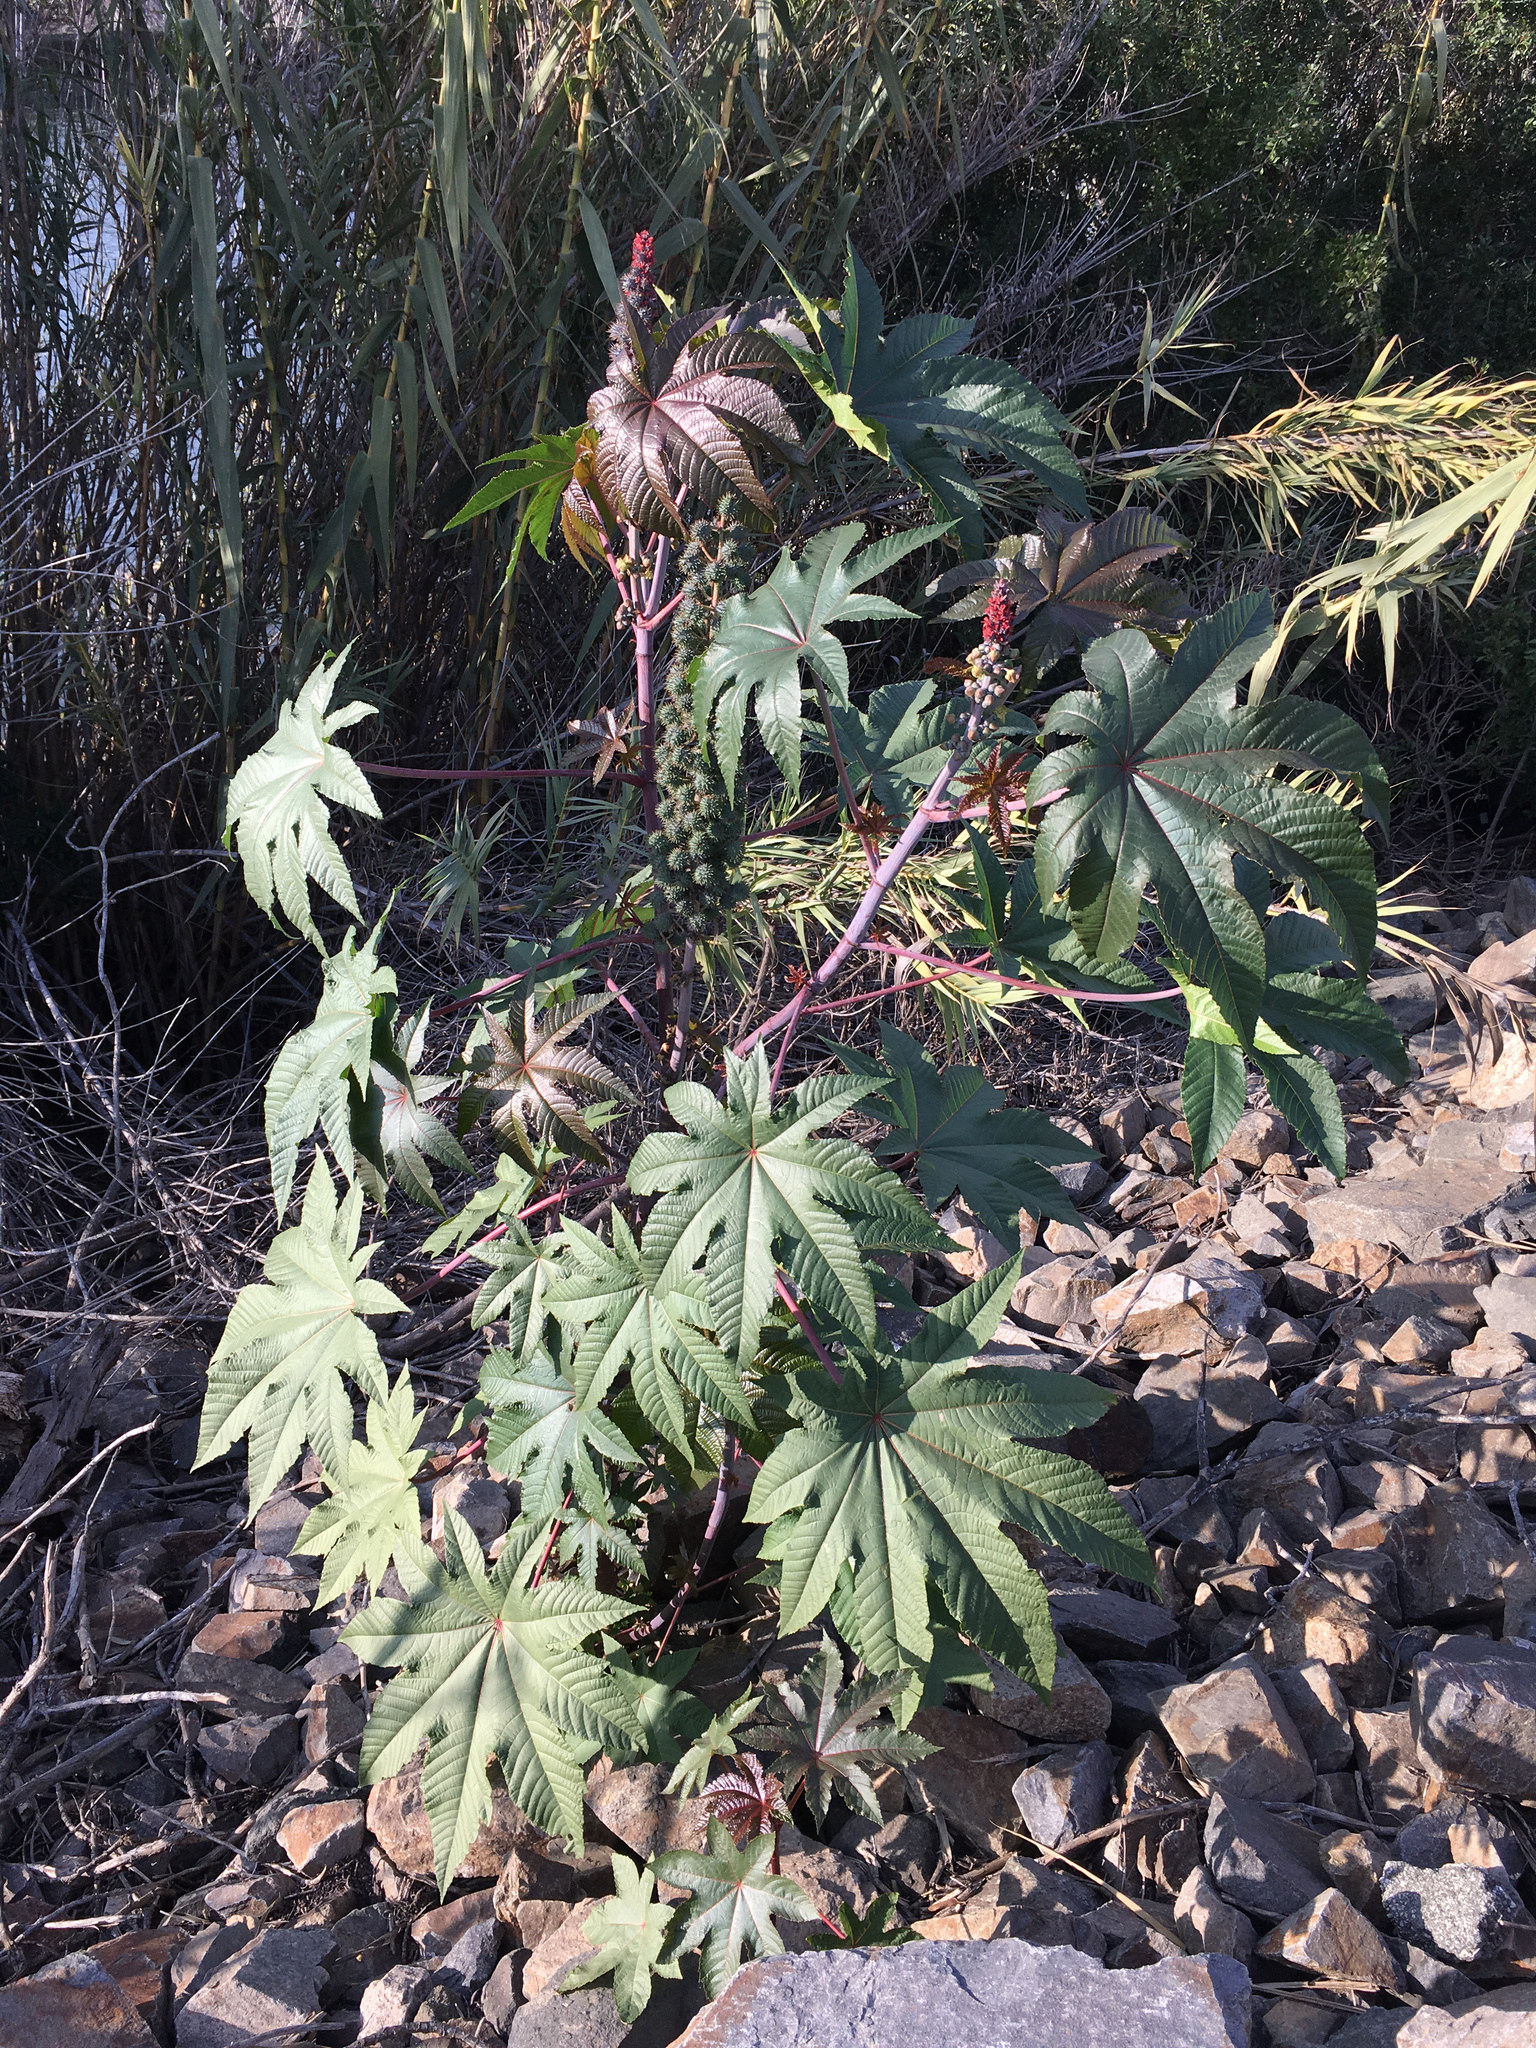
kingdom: Plantae
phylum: Tracheophyta
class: Magnoliopsida
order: Malpighiales
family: Euphorbiaceae
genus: Ricinus
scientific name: Ricinus communis
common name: Castor-oil-plant
